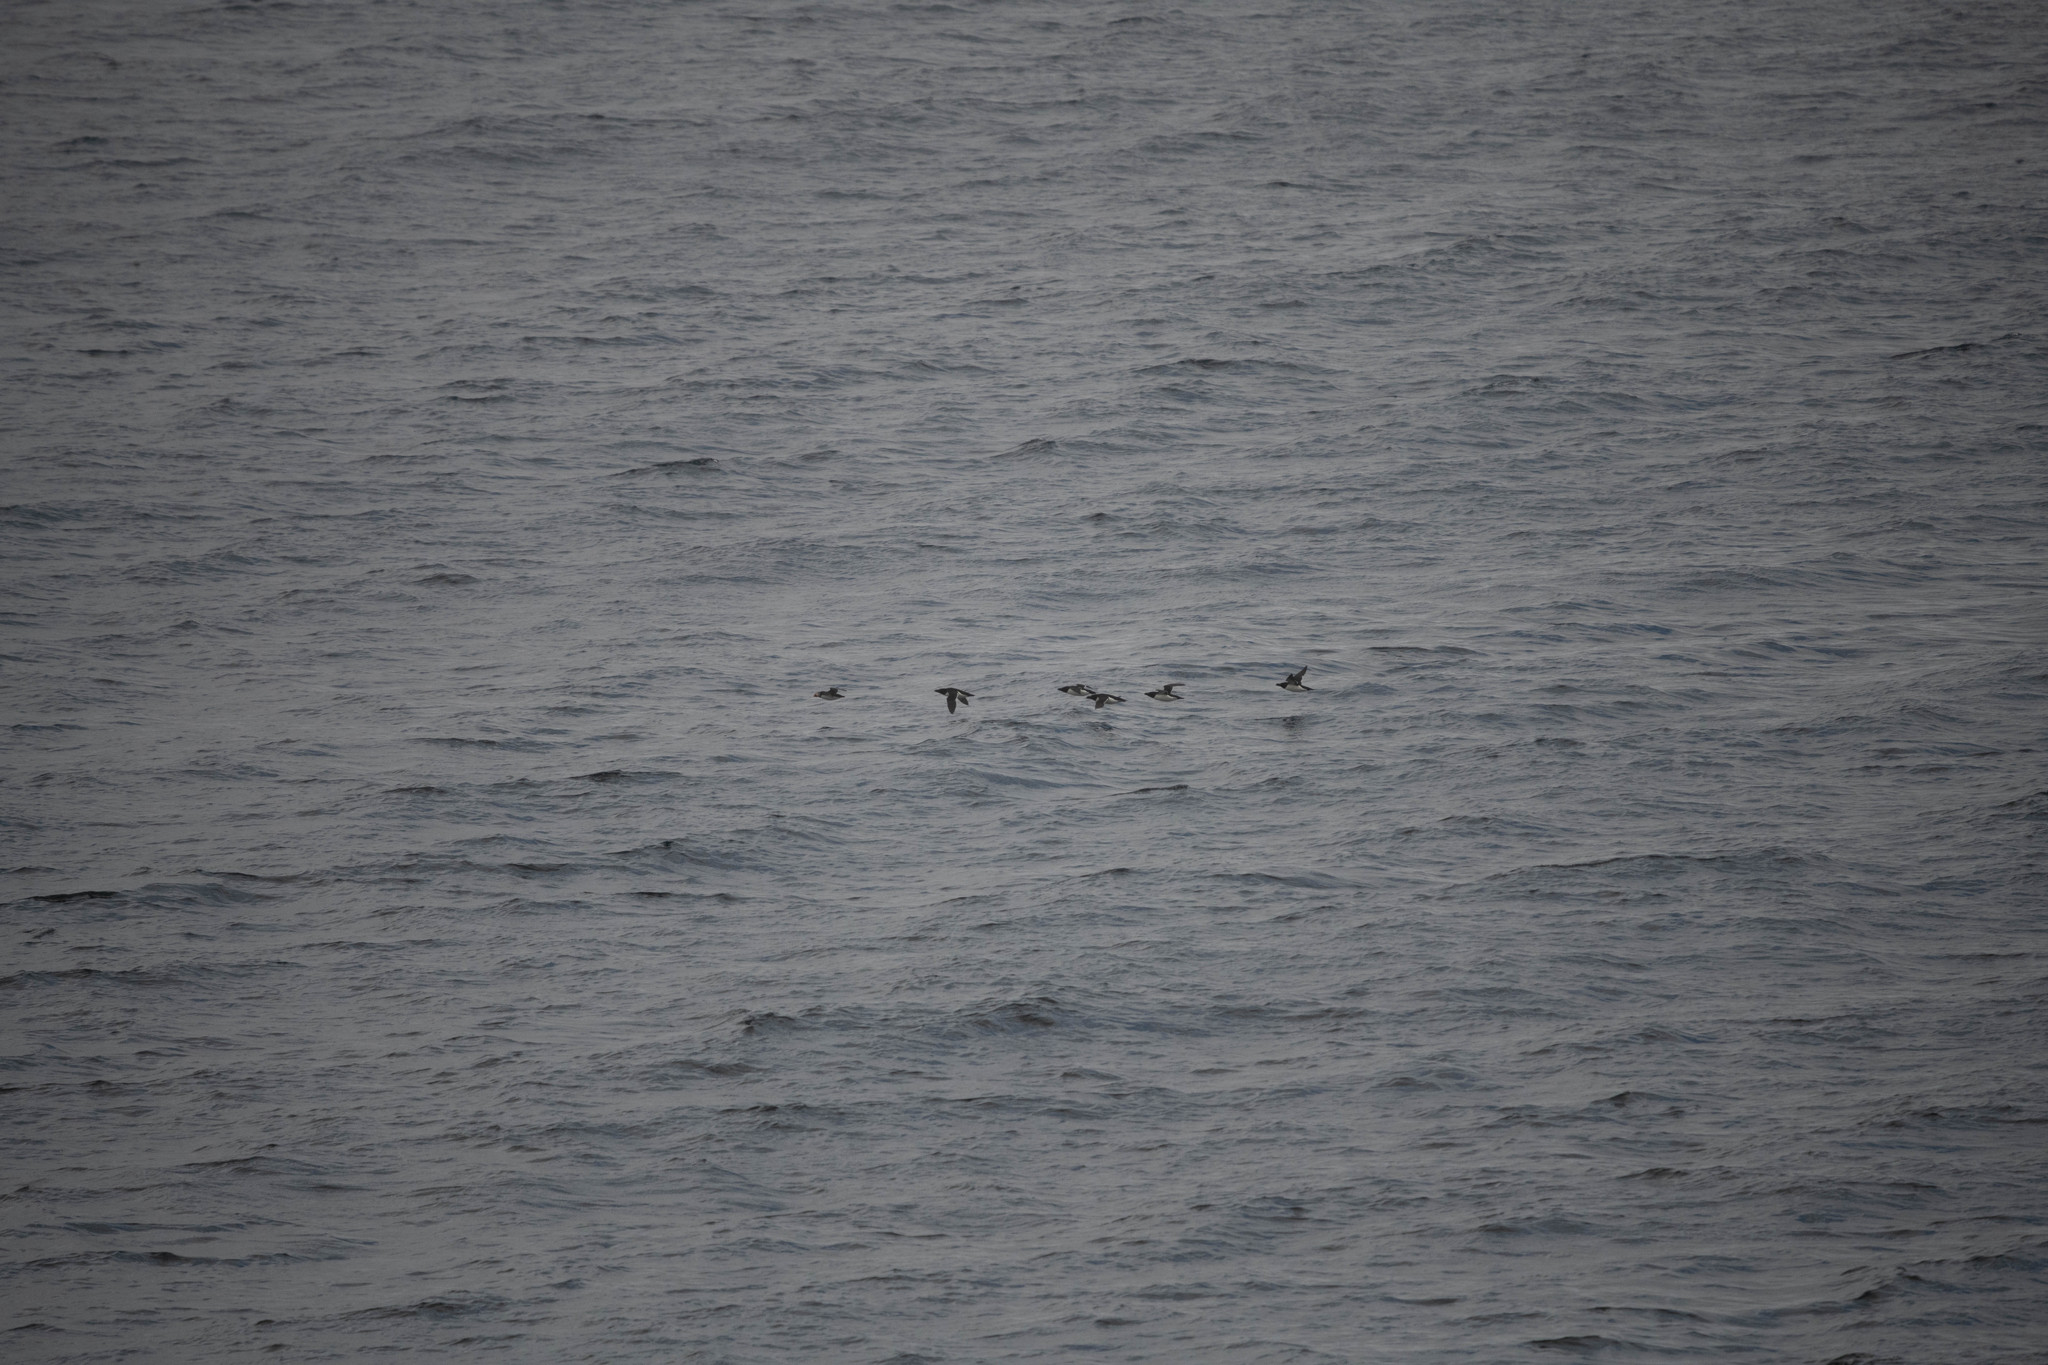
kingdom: Animalia
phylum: Chordata
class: Aves
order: Charadriiformes
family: Alcidae
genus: Alca
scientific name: Alca torda
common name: Razorbill
